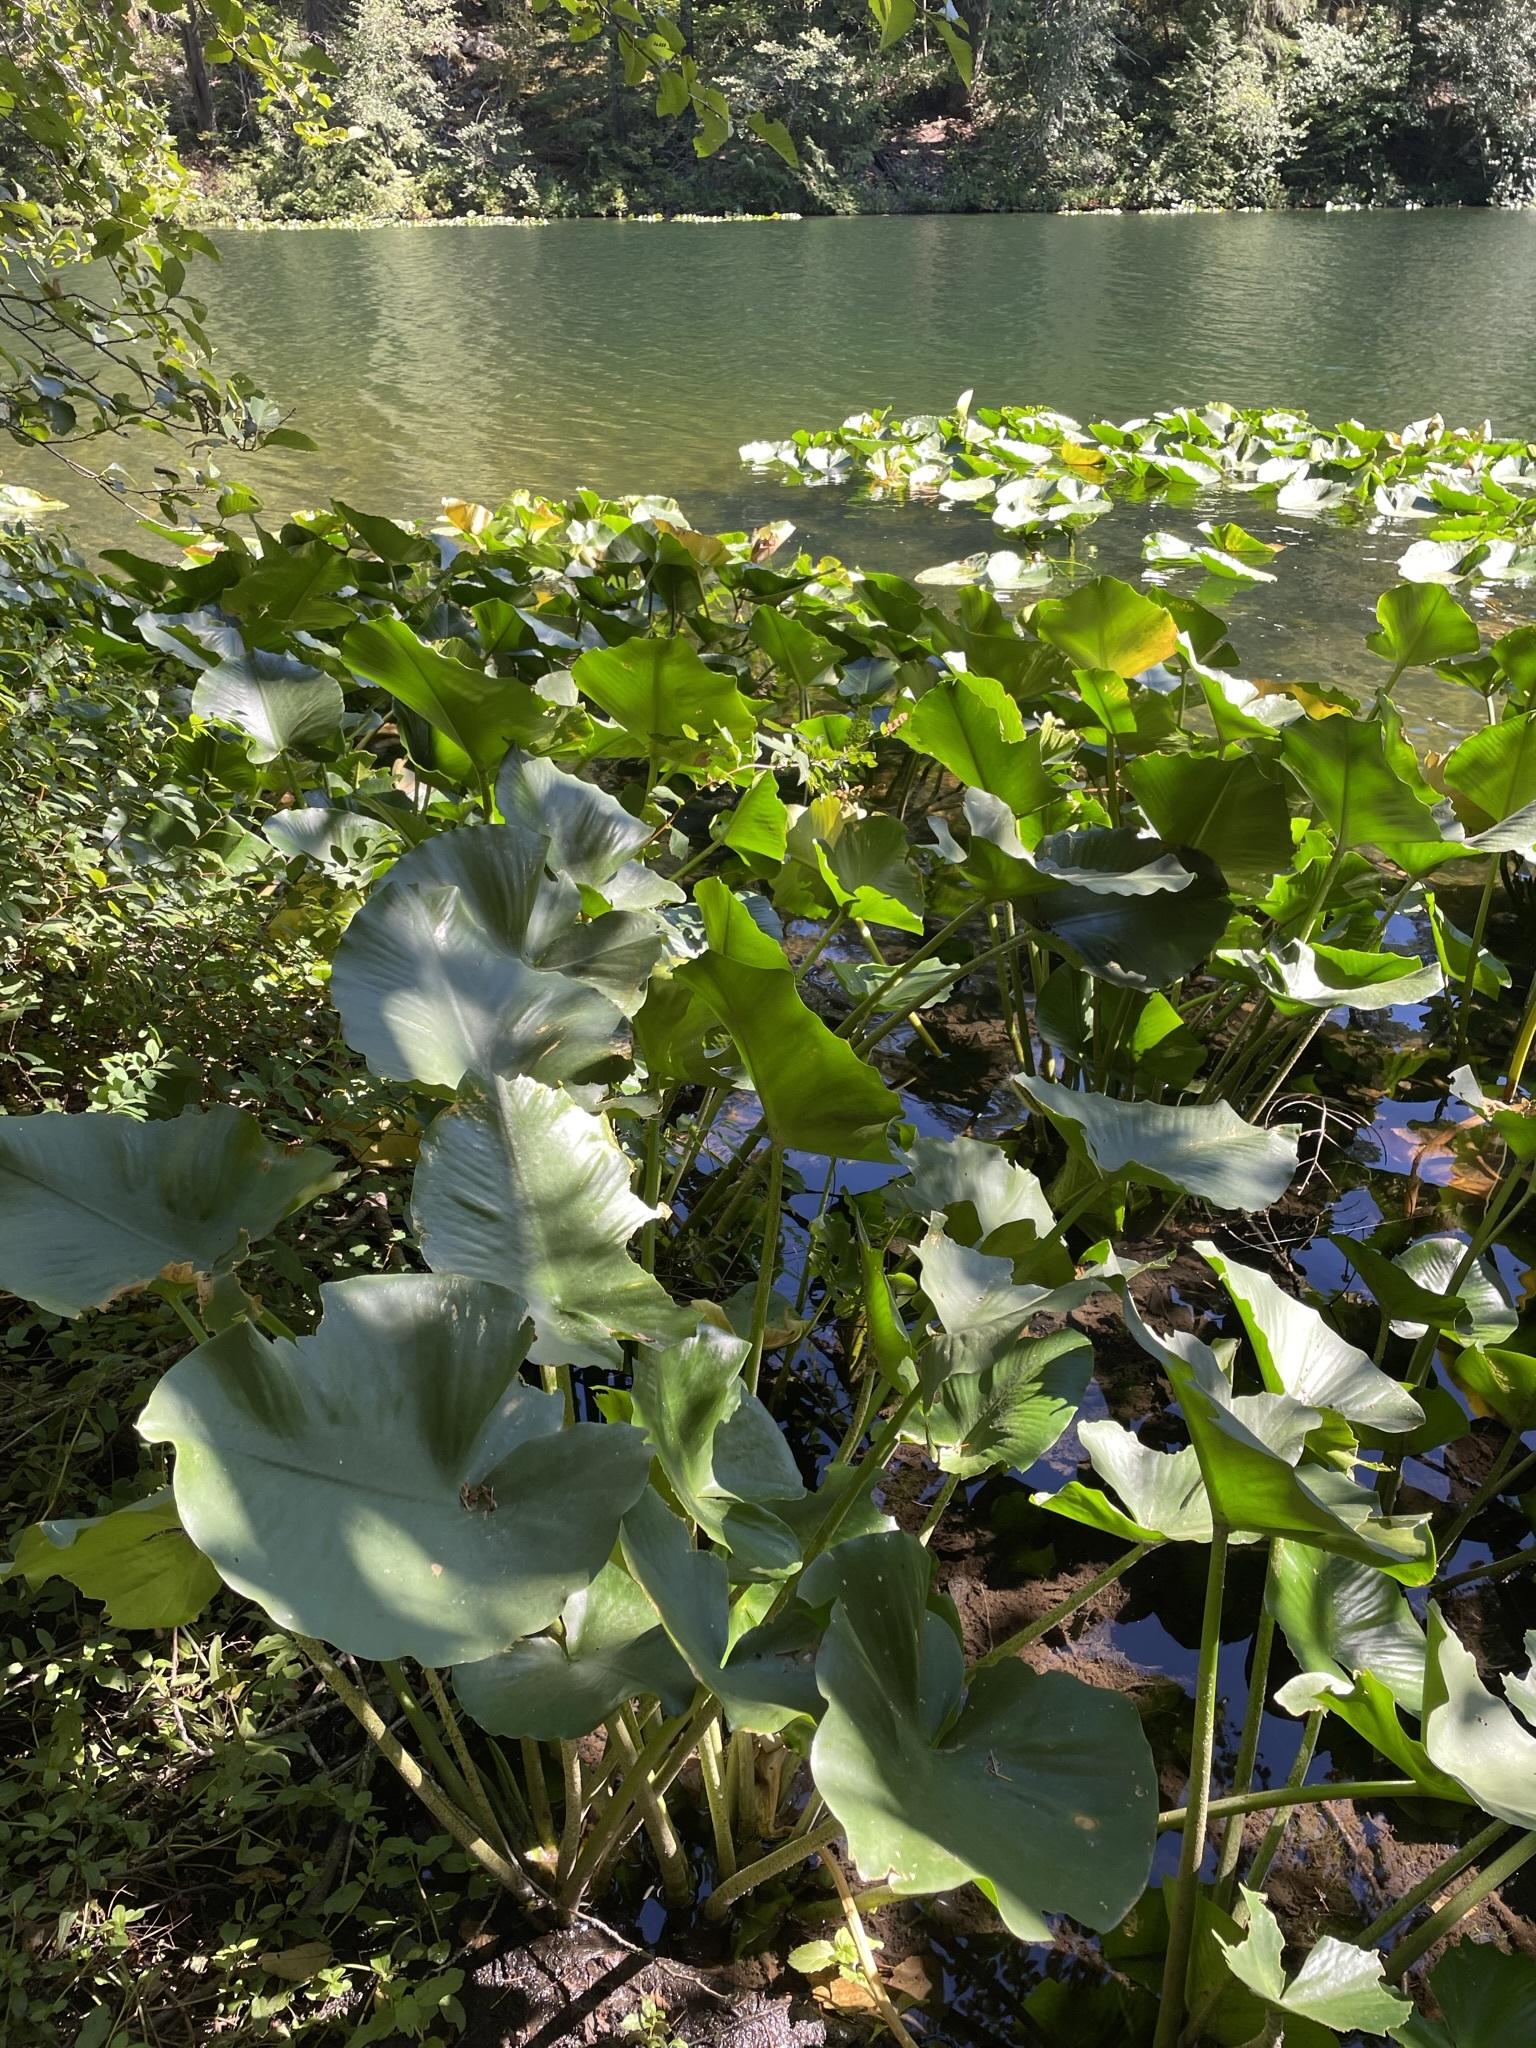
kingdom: Plantae
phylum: Tracheophyta
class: Magnoliopsida
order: Nymphaeales
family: Nymphaeaceae
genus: Nuphar
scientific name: Nuphar polysepala
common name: Rocky mountain cow-lily
